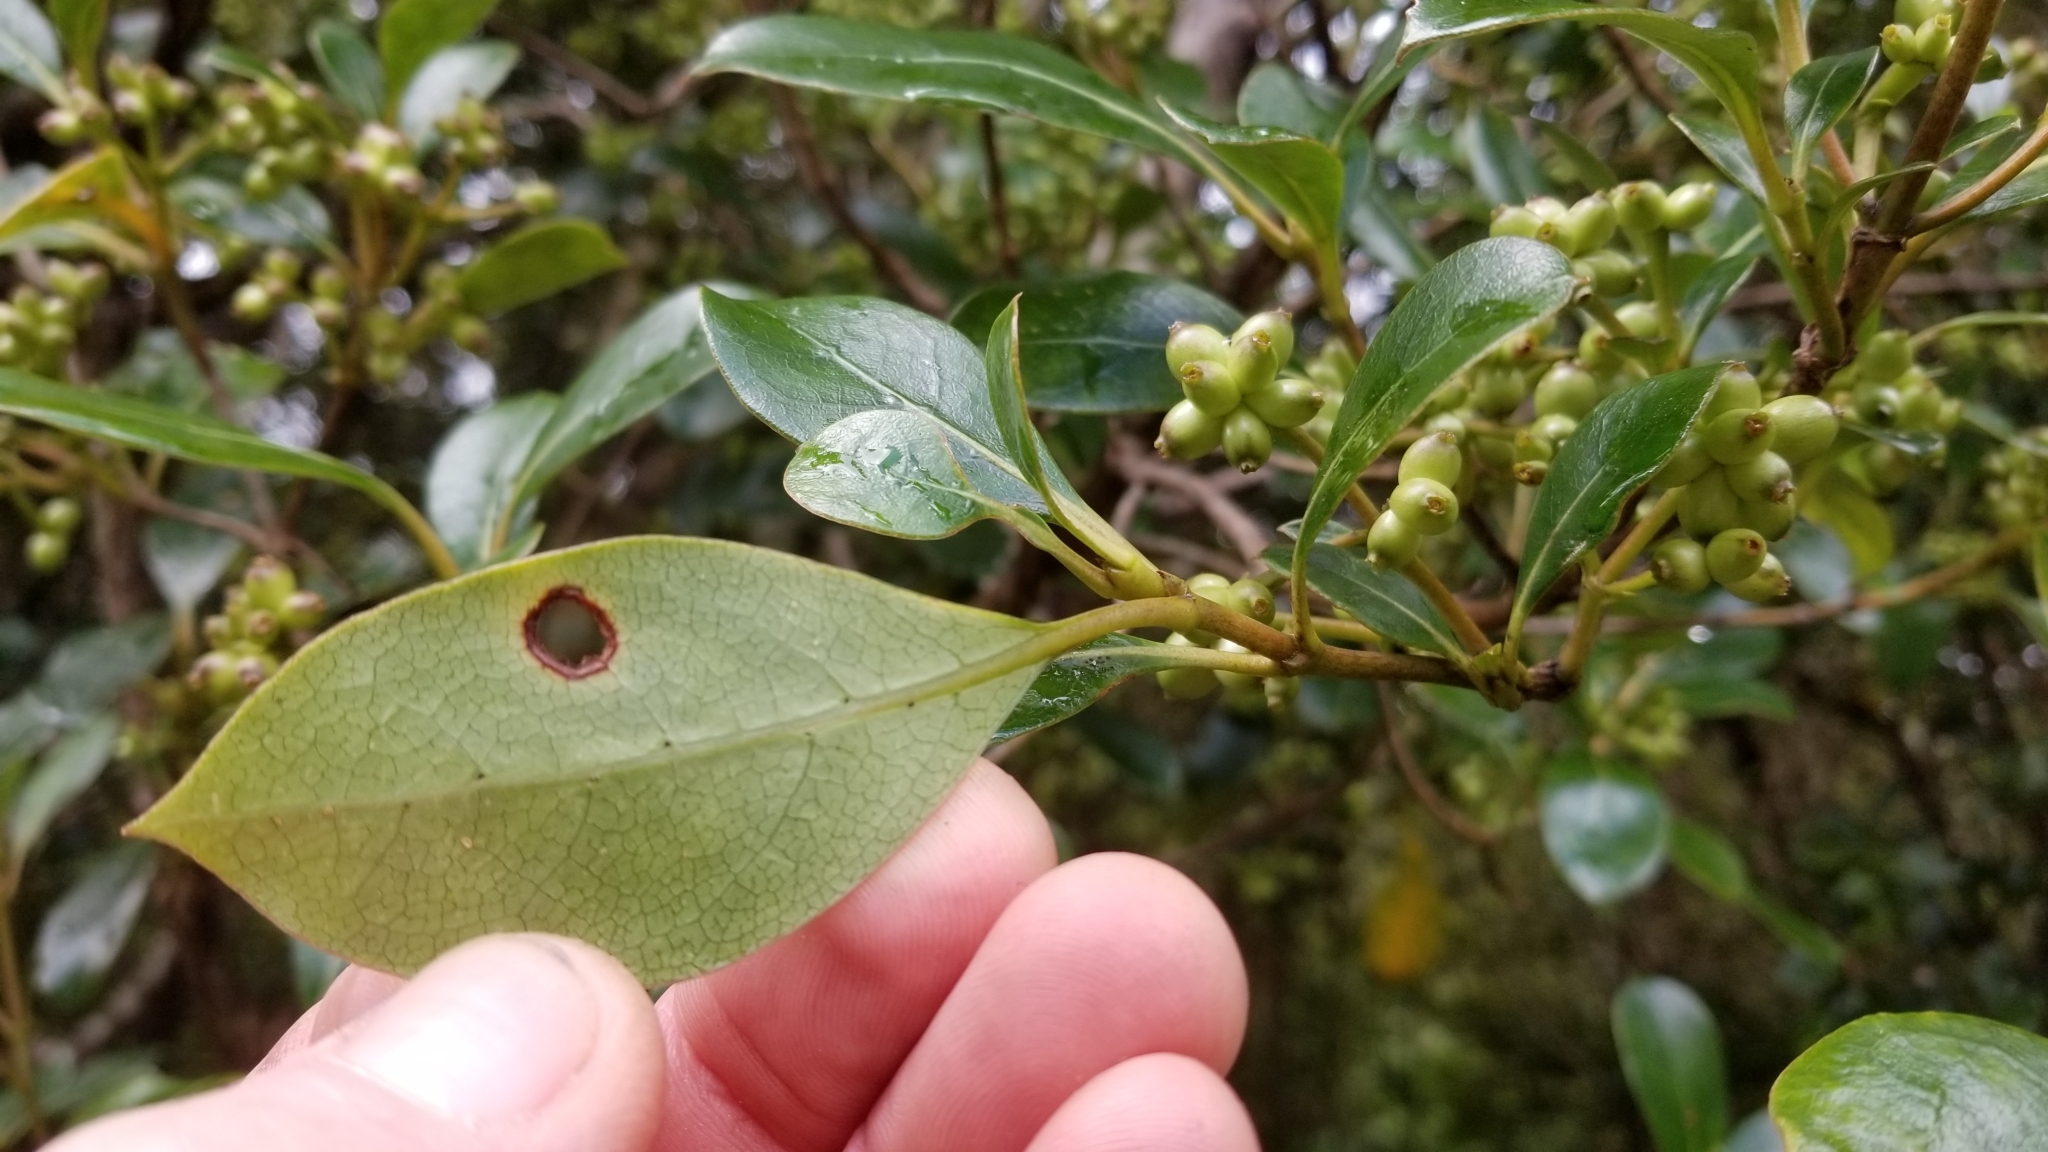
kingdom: Plantae
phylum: Tracheophyta
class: Magnoliopsida
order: Gentianales
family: Rubiaceae
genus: Coprosma
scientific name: Coprosma lucida
